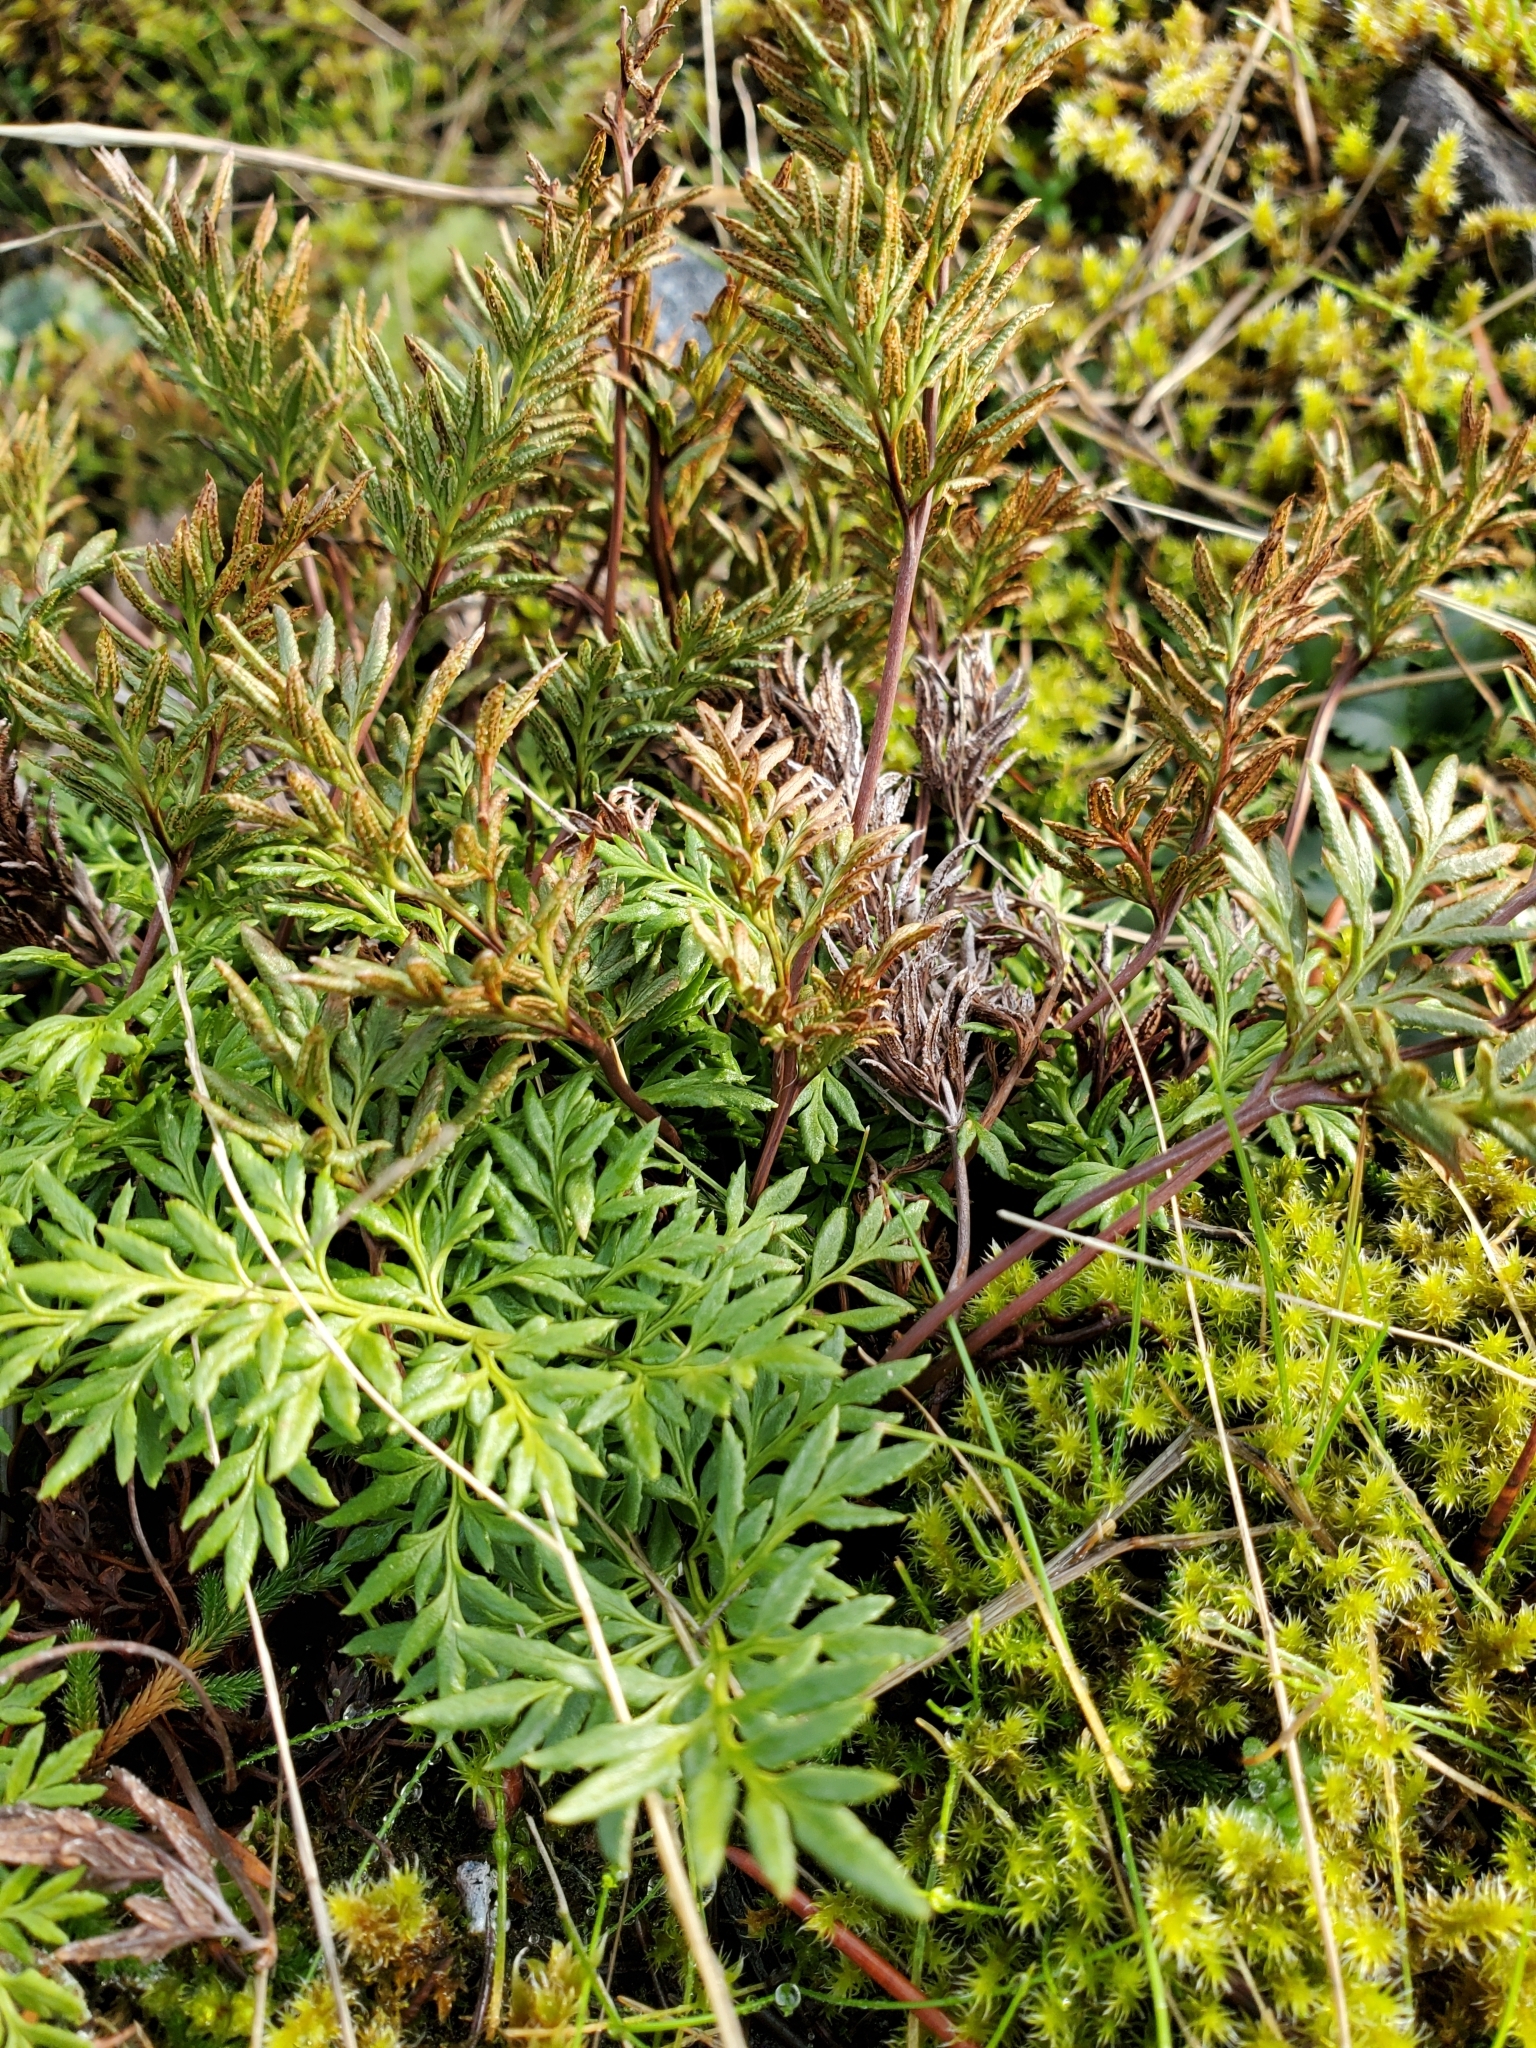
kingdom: Plantae
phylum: Tracheophyta
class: Polypodiopsida
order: Polypodiales
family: Pteridaceae
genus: Aspidotis
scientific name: Aspidotis densa
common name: Indian's dream
